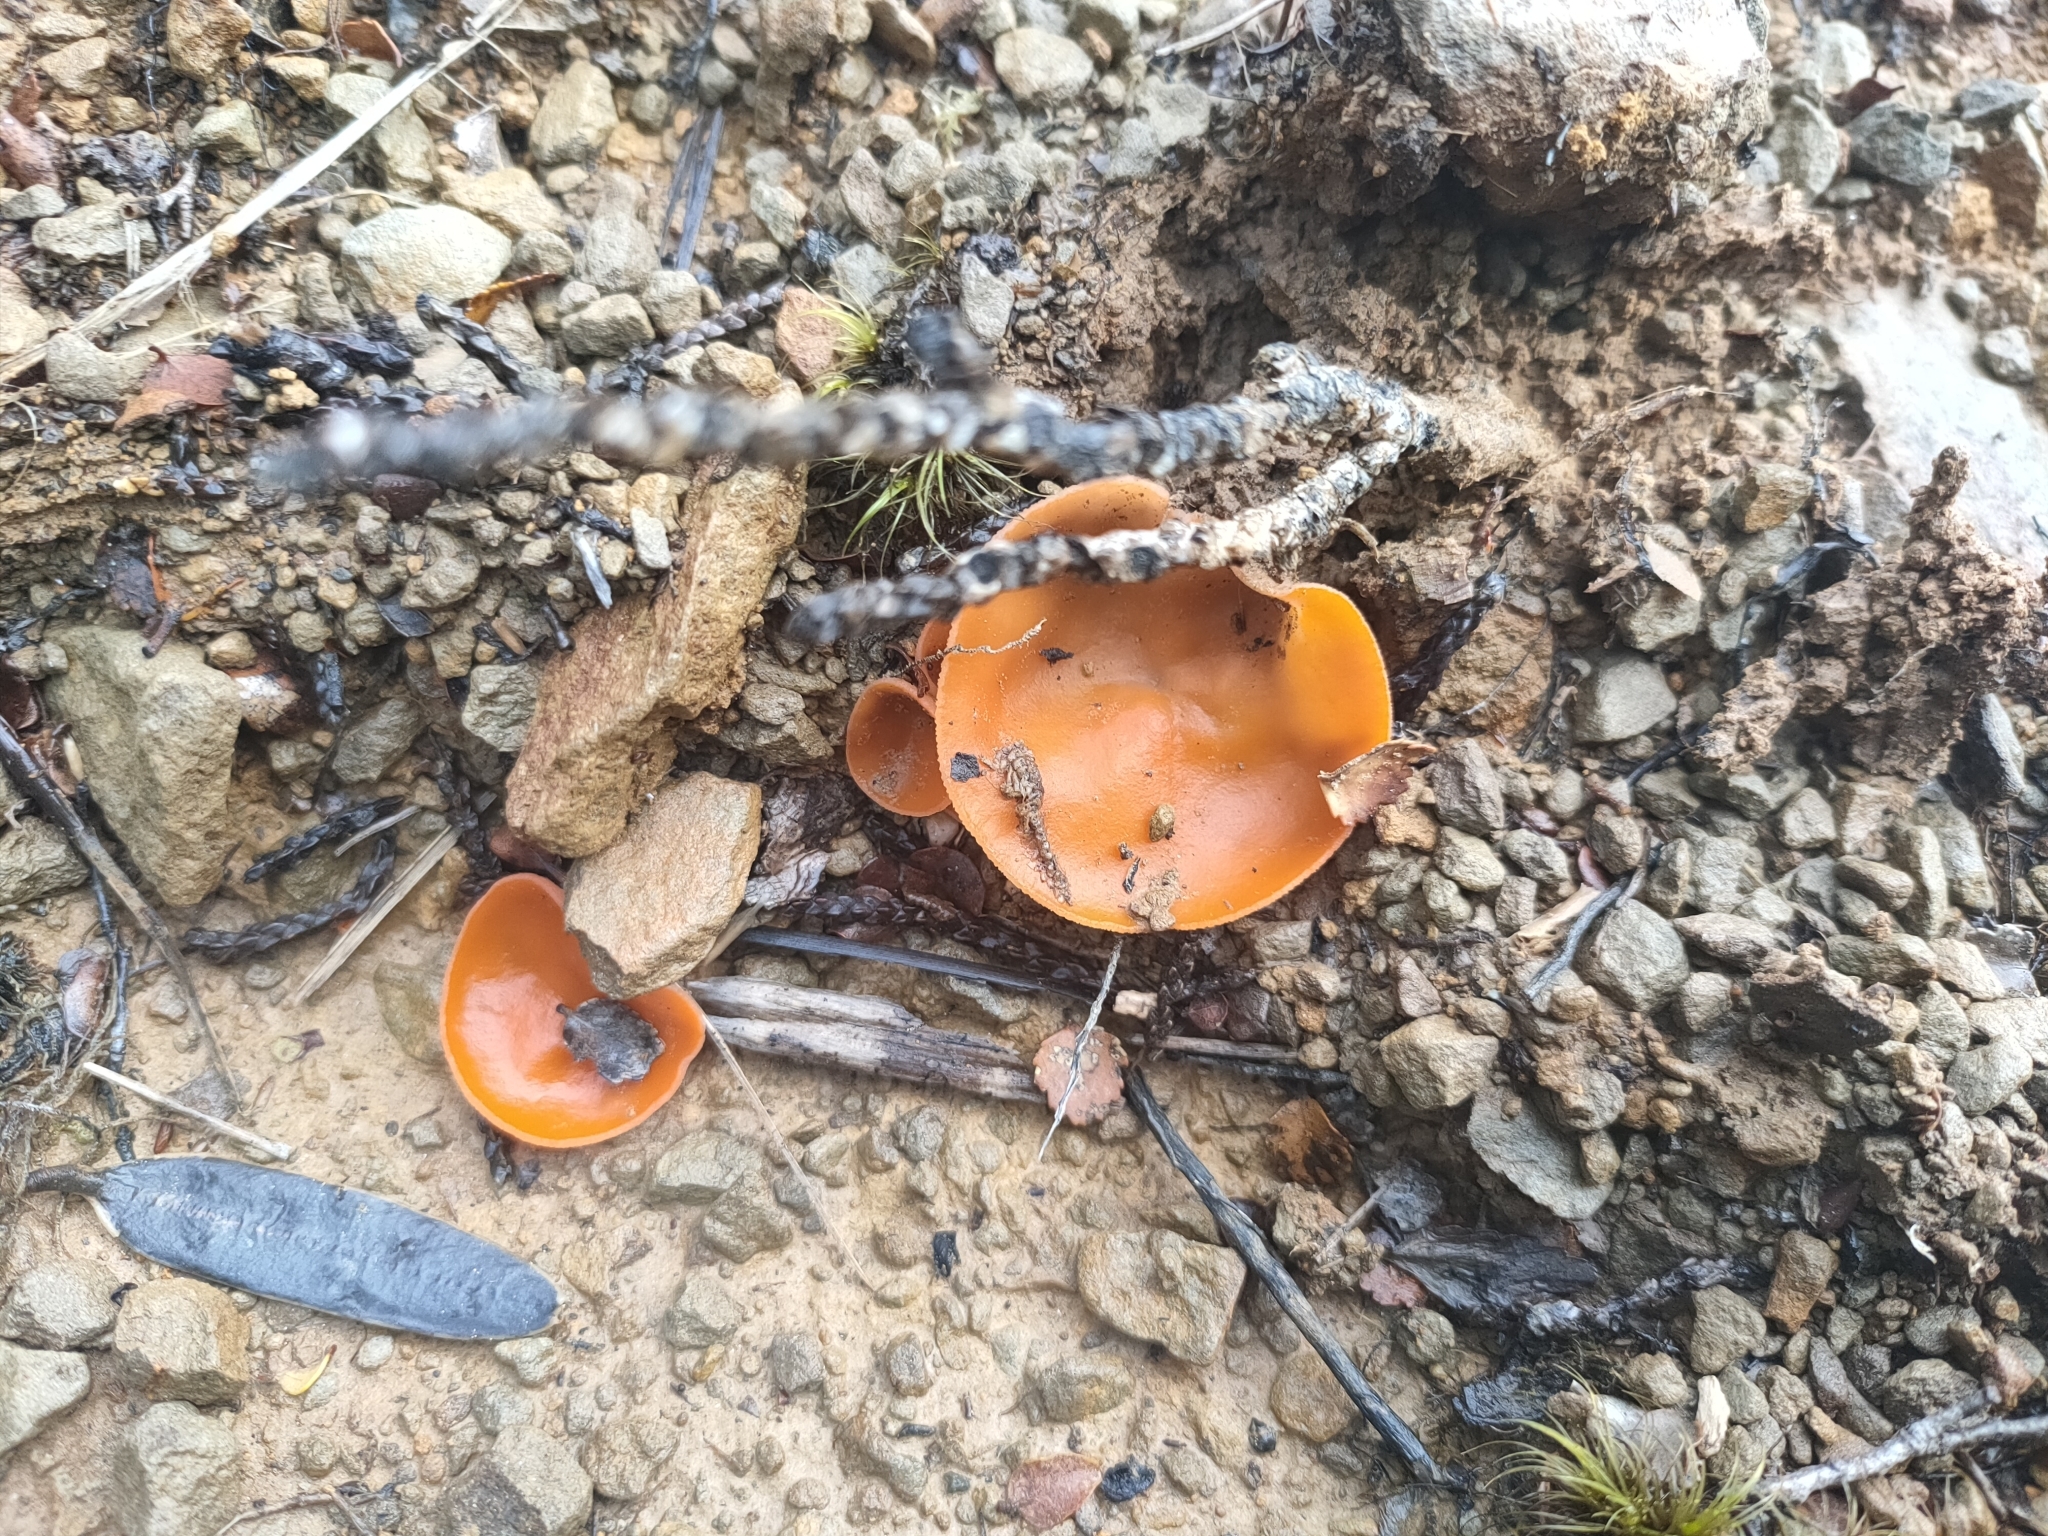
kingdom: Fungi
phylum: Ascomycota
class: Pezizomycetes
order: Pezizales
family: Pyronemataceae
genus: Aleuria
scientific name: Aleuria aurantia
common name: Orange peel fungus
